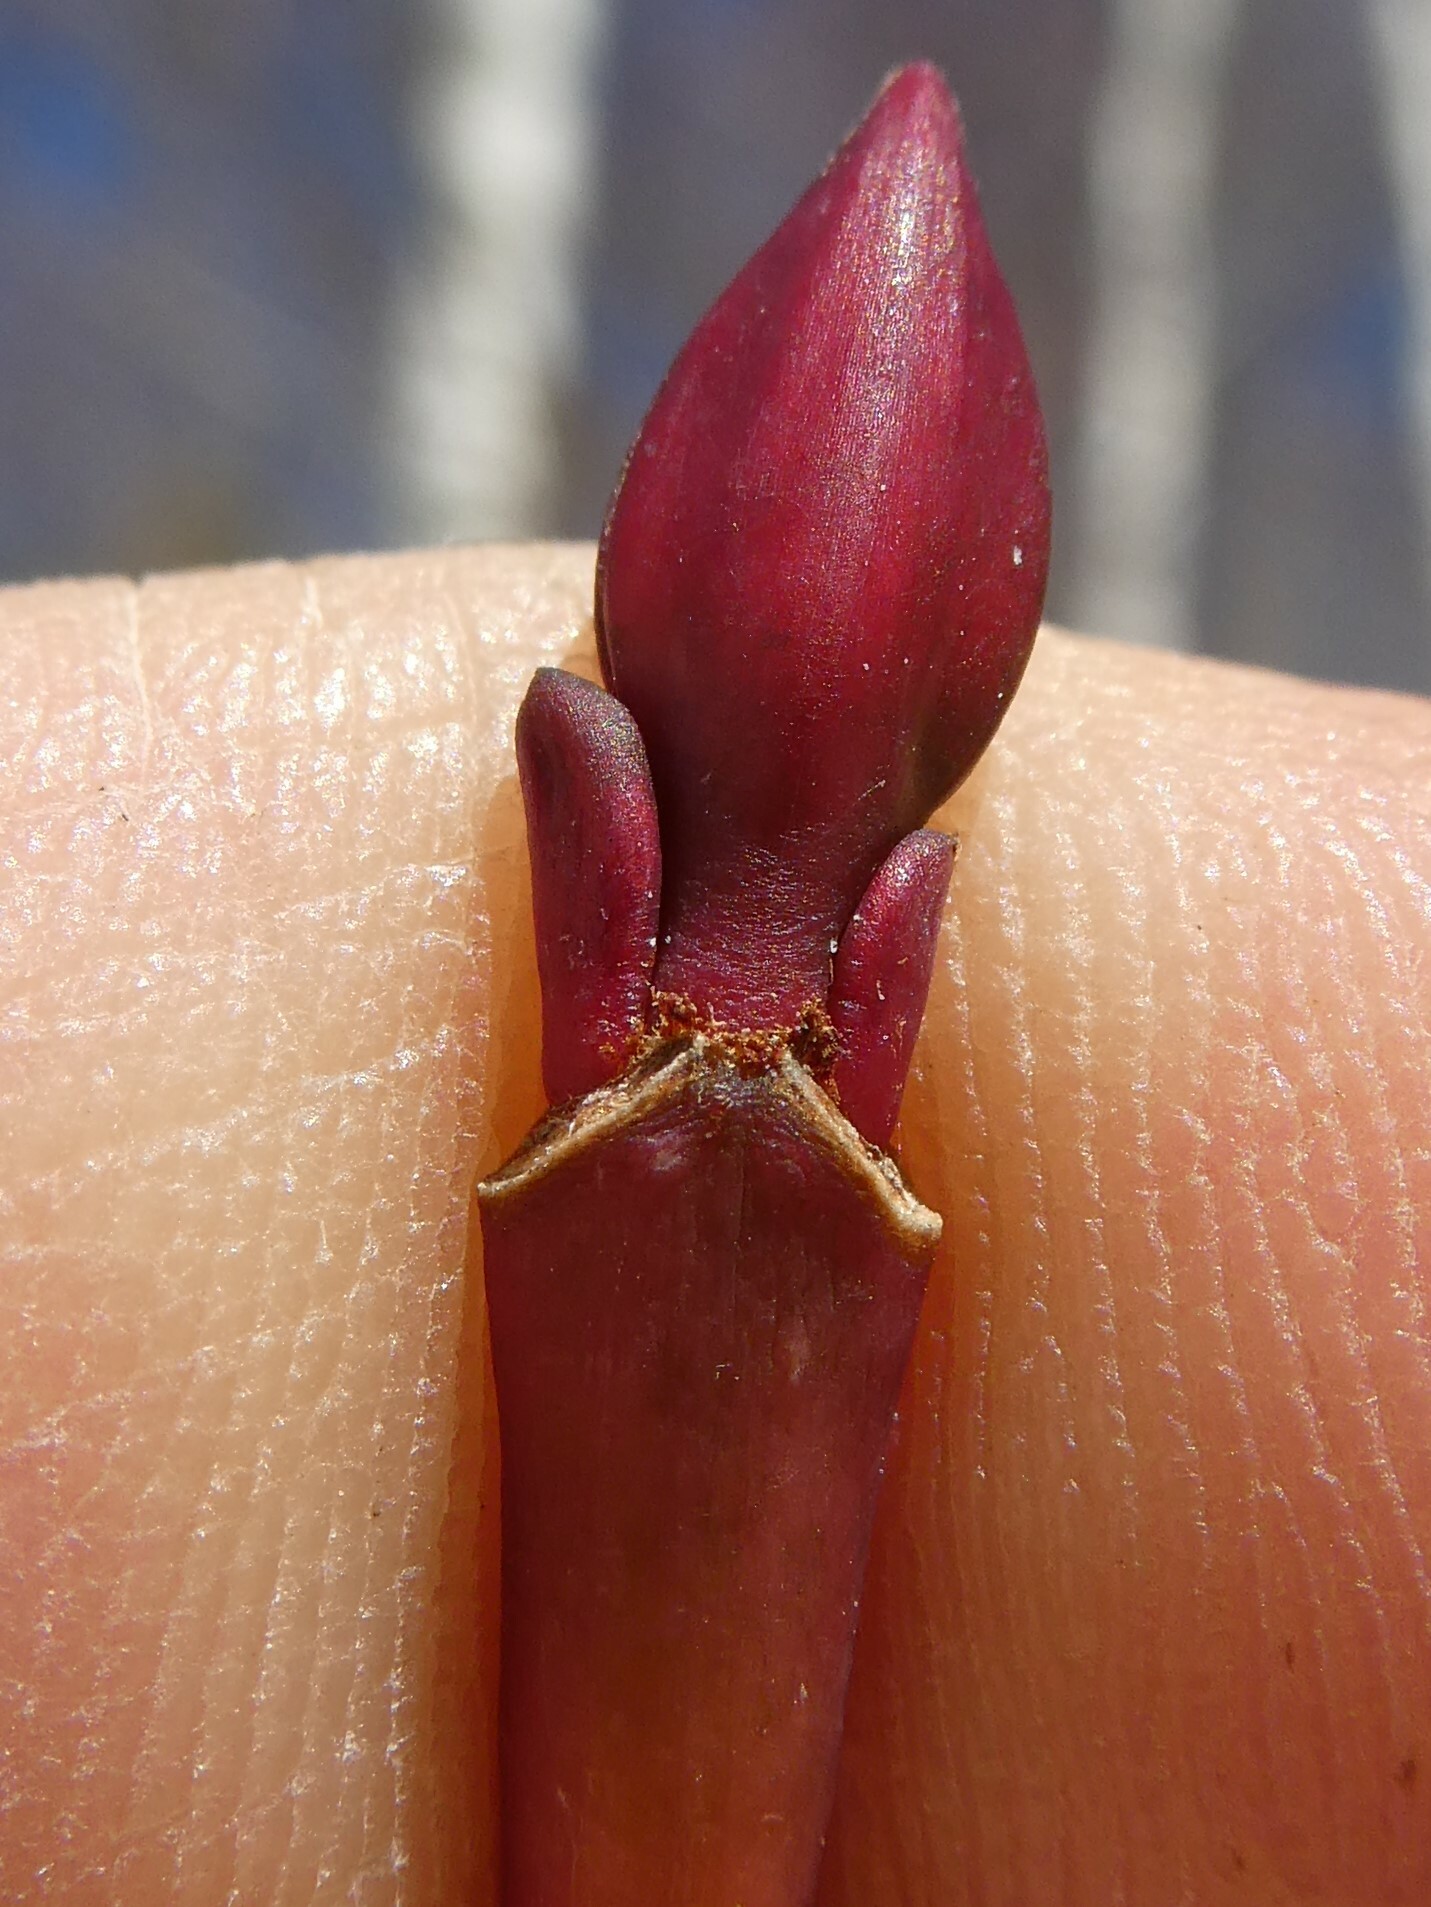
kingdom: Plantae
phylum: Tracheophyta
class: Magnoliopsida
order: Sapindales
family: Sapindaceae
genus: Acer
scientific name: Acer pensylvanicum
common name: Moosewood
